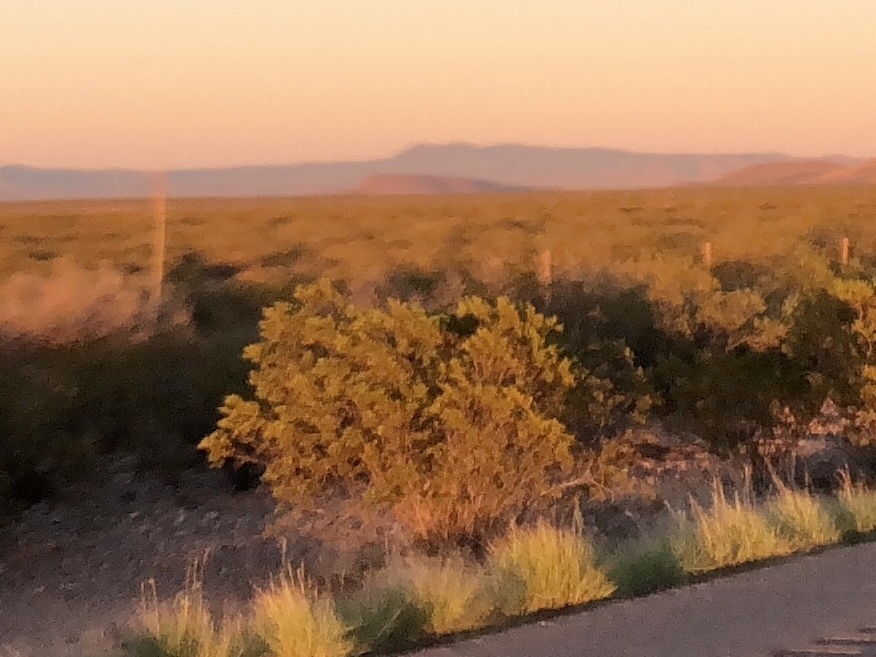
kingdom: Plantae
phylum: Tracheophyta
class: Magnoliopsida
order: Zygophyllales
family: Zygophyllaceae
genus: Larrea
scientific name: Larrea tridentata
